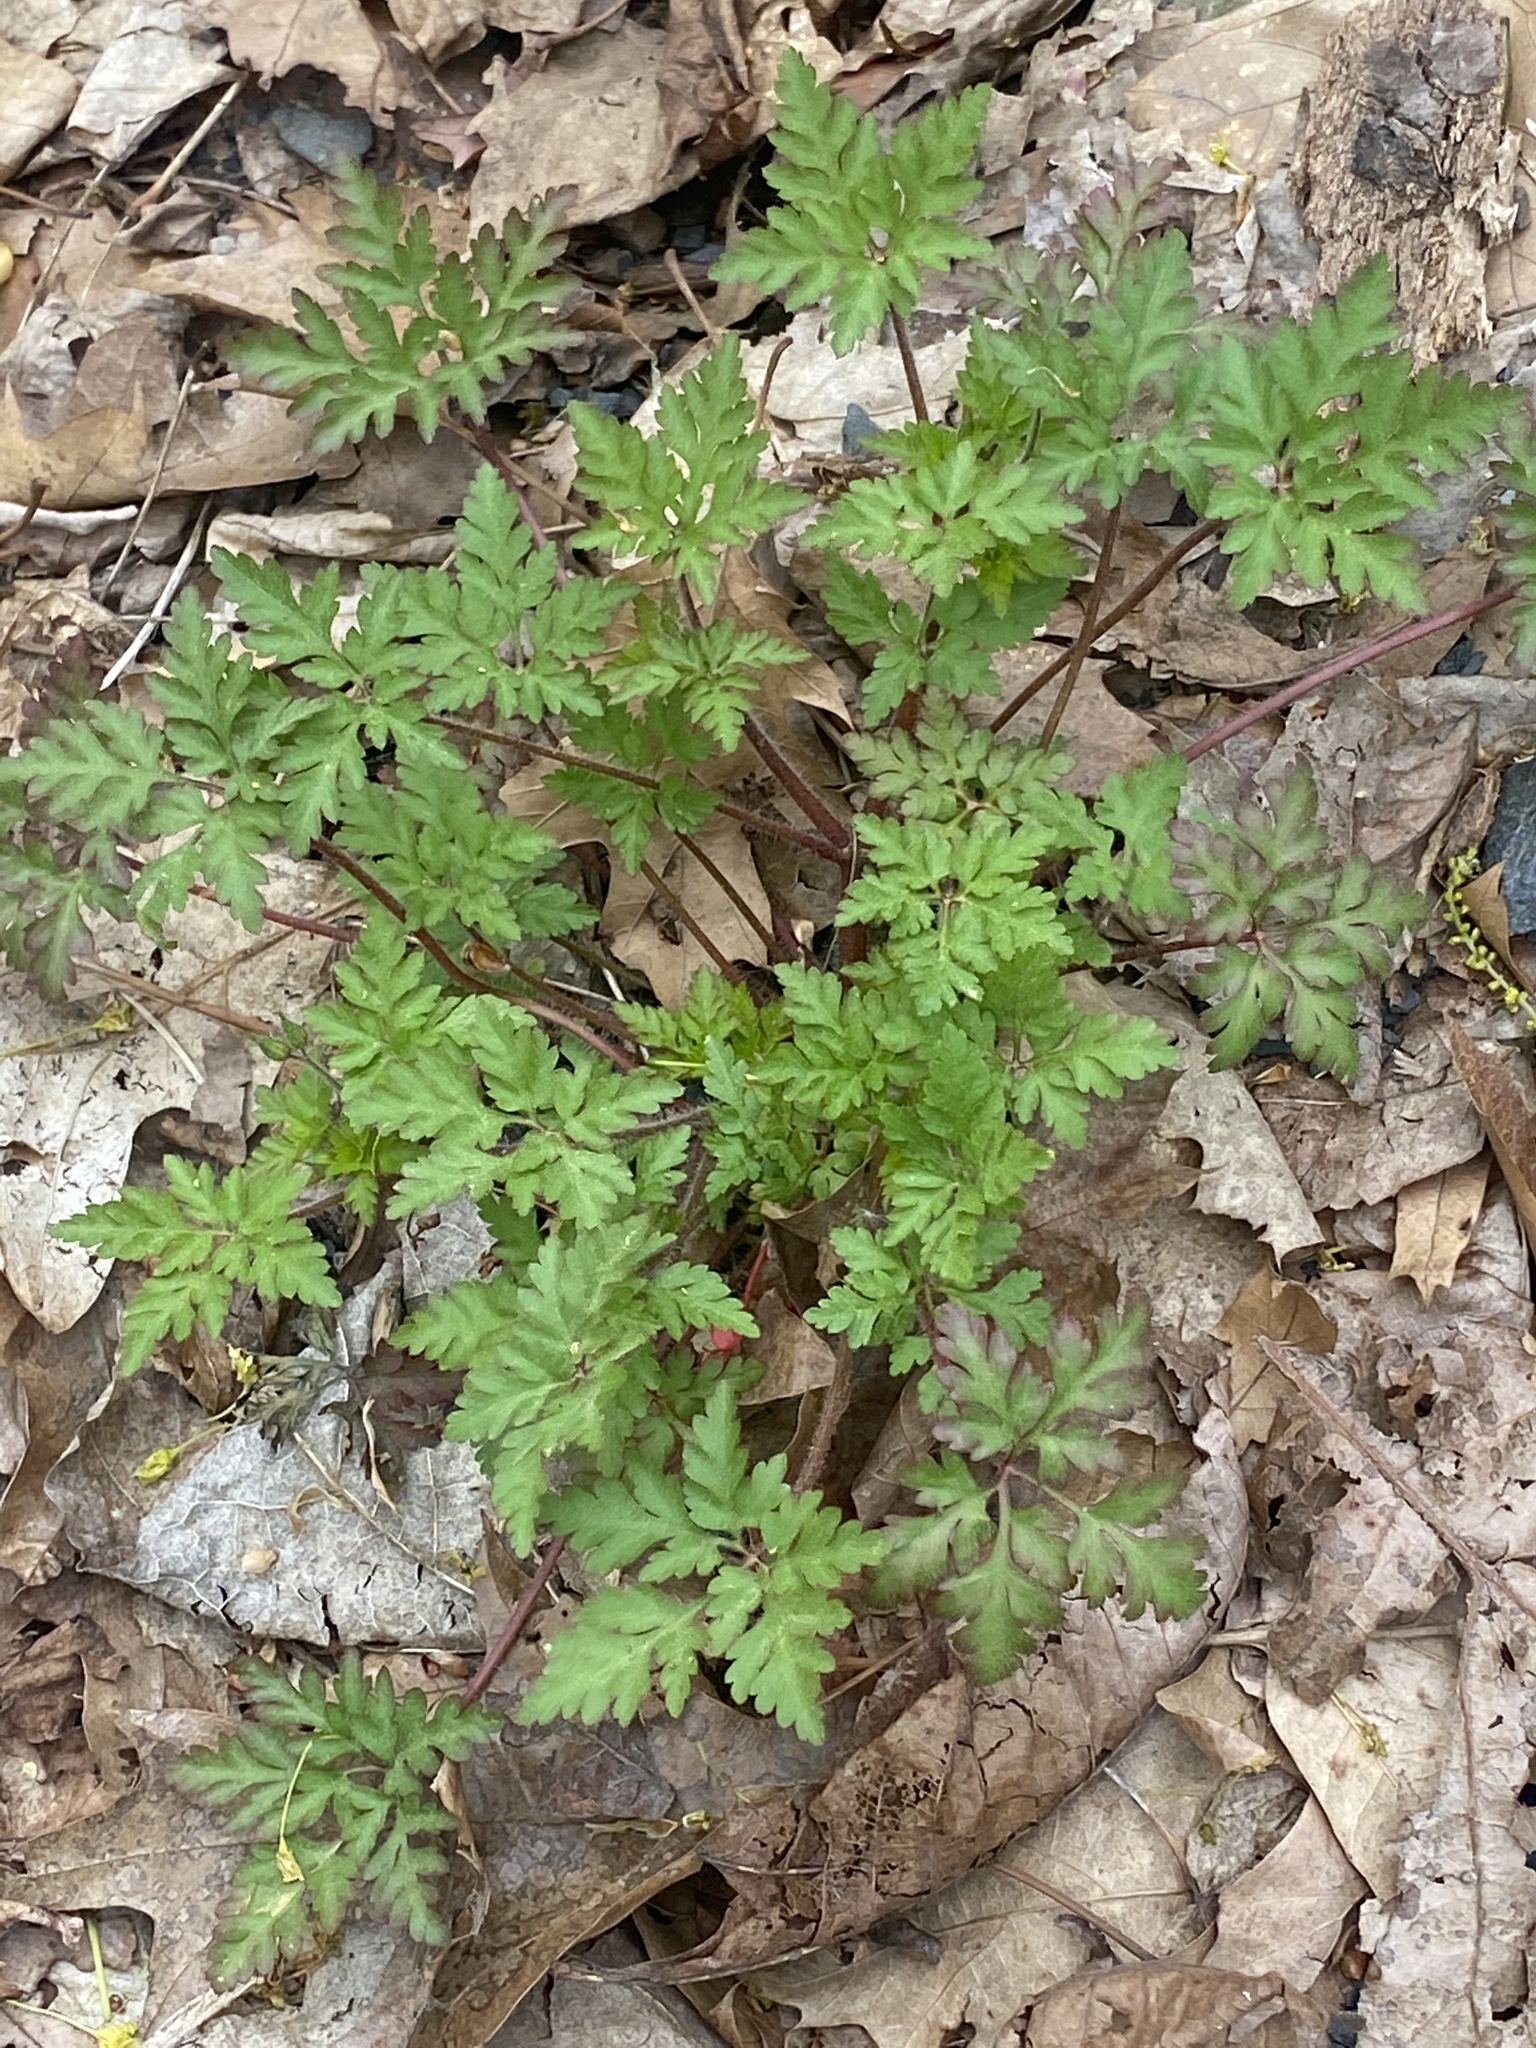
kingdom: Plantae
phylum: Tracheophyta
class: Magnoliopsida
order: Geraniales
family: Geraniaceae
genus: Geranium
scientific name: Geranium robertianum
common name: Herb-robert
